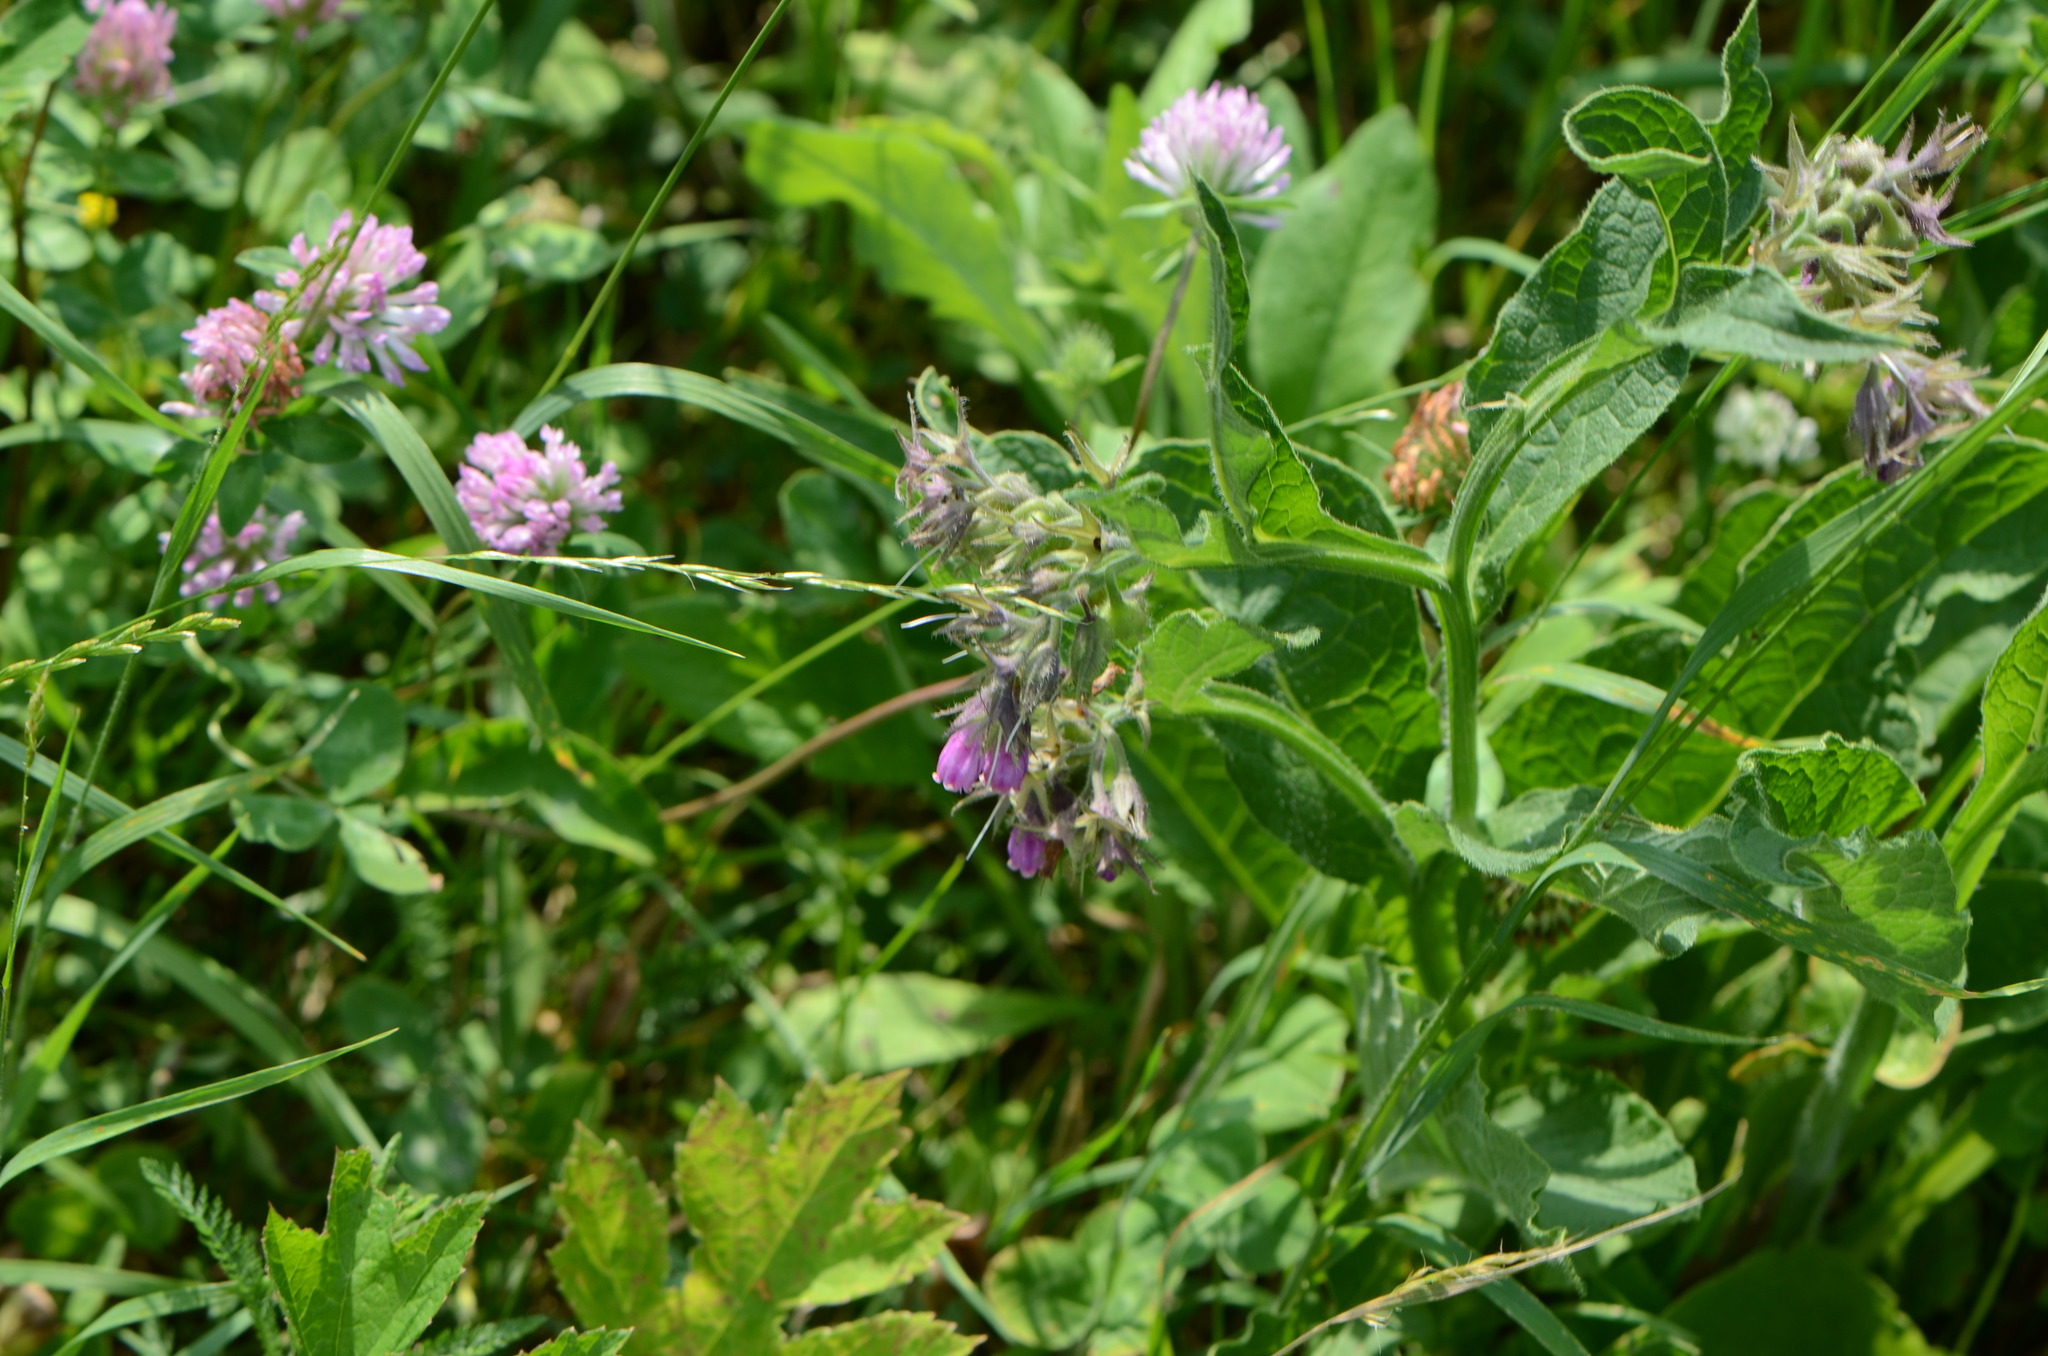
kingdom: Plantae
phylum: Tracheophyta
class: Magnoliopsida
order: Boraginales
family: Boraginaceae
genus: Symphytum
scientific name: Symphytum officinale
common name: Common comfrey
